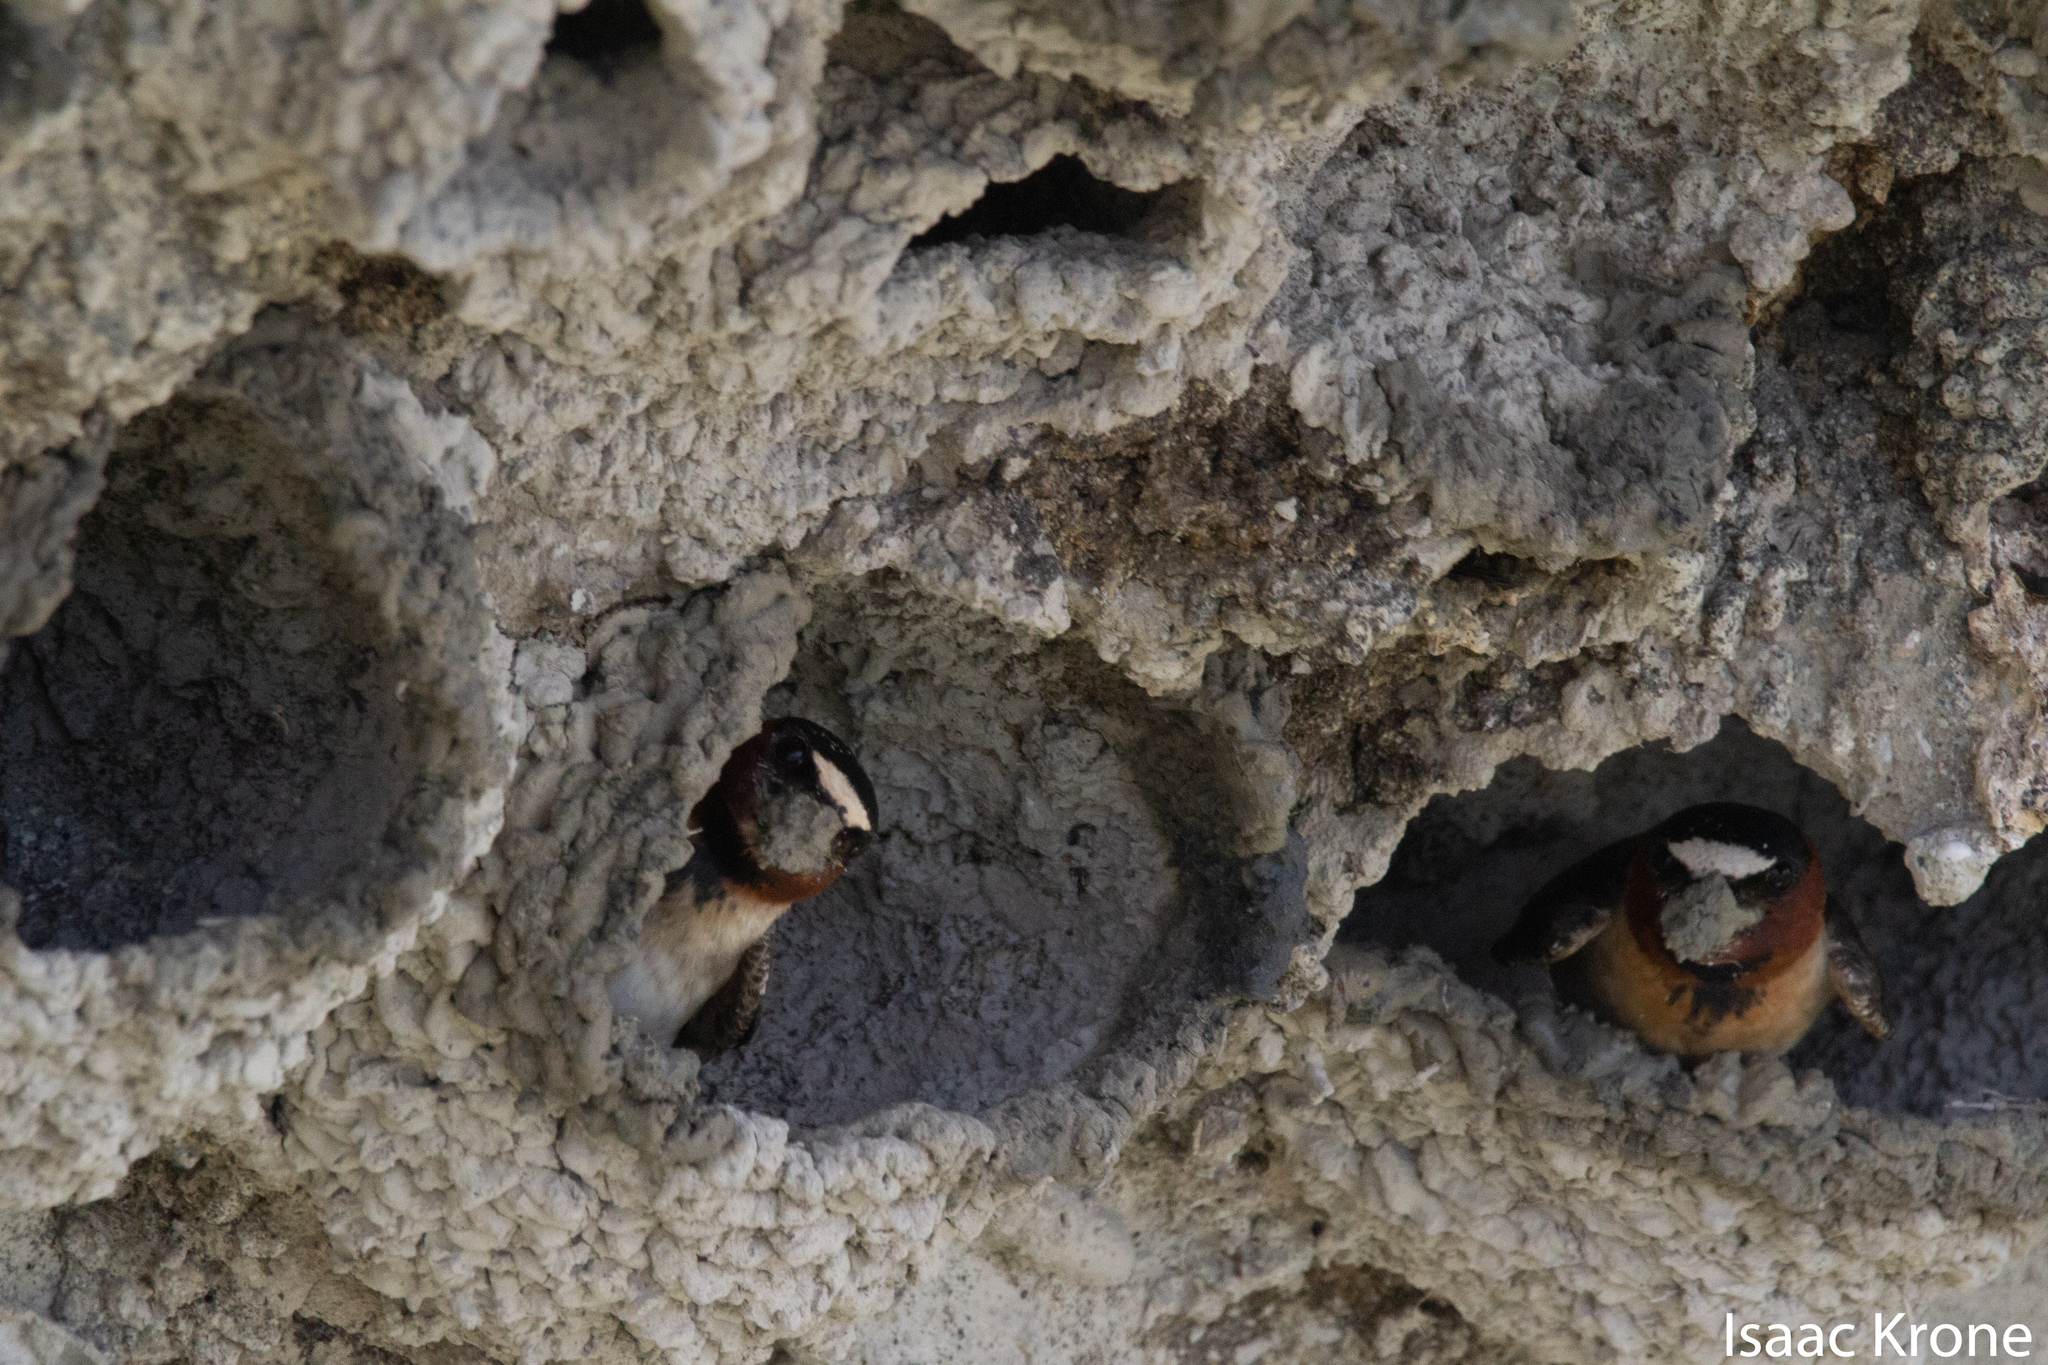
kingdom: Animalia
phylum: Chordata
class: Aves
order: Passeriformes
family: Hirundinidae
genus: Petrochelidon
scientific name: Petrochelidon pyrrhonota
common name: American cliff swallow
